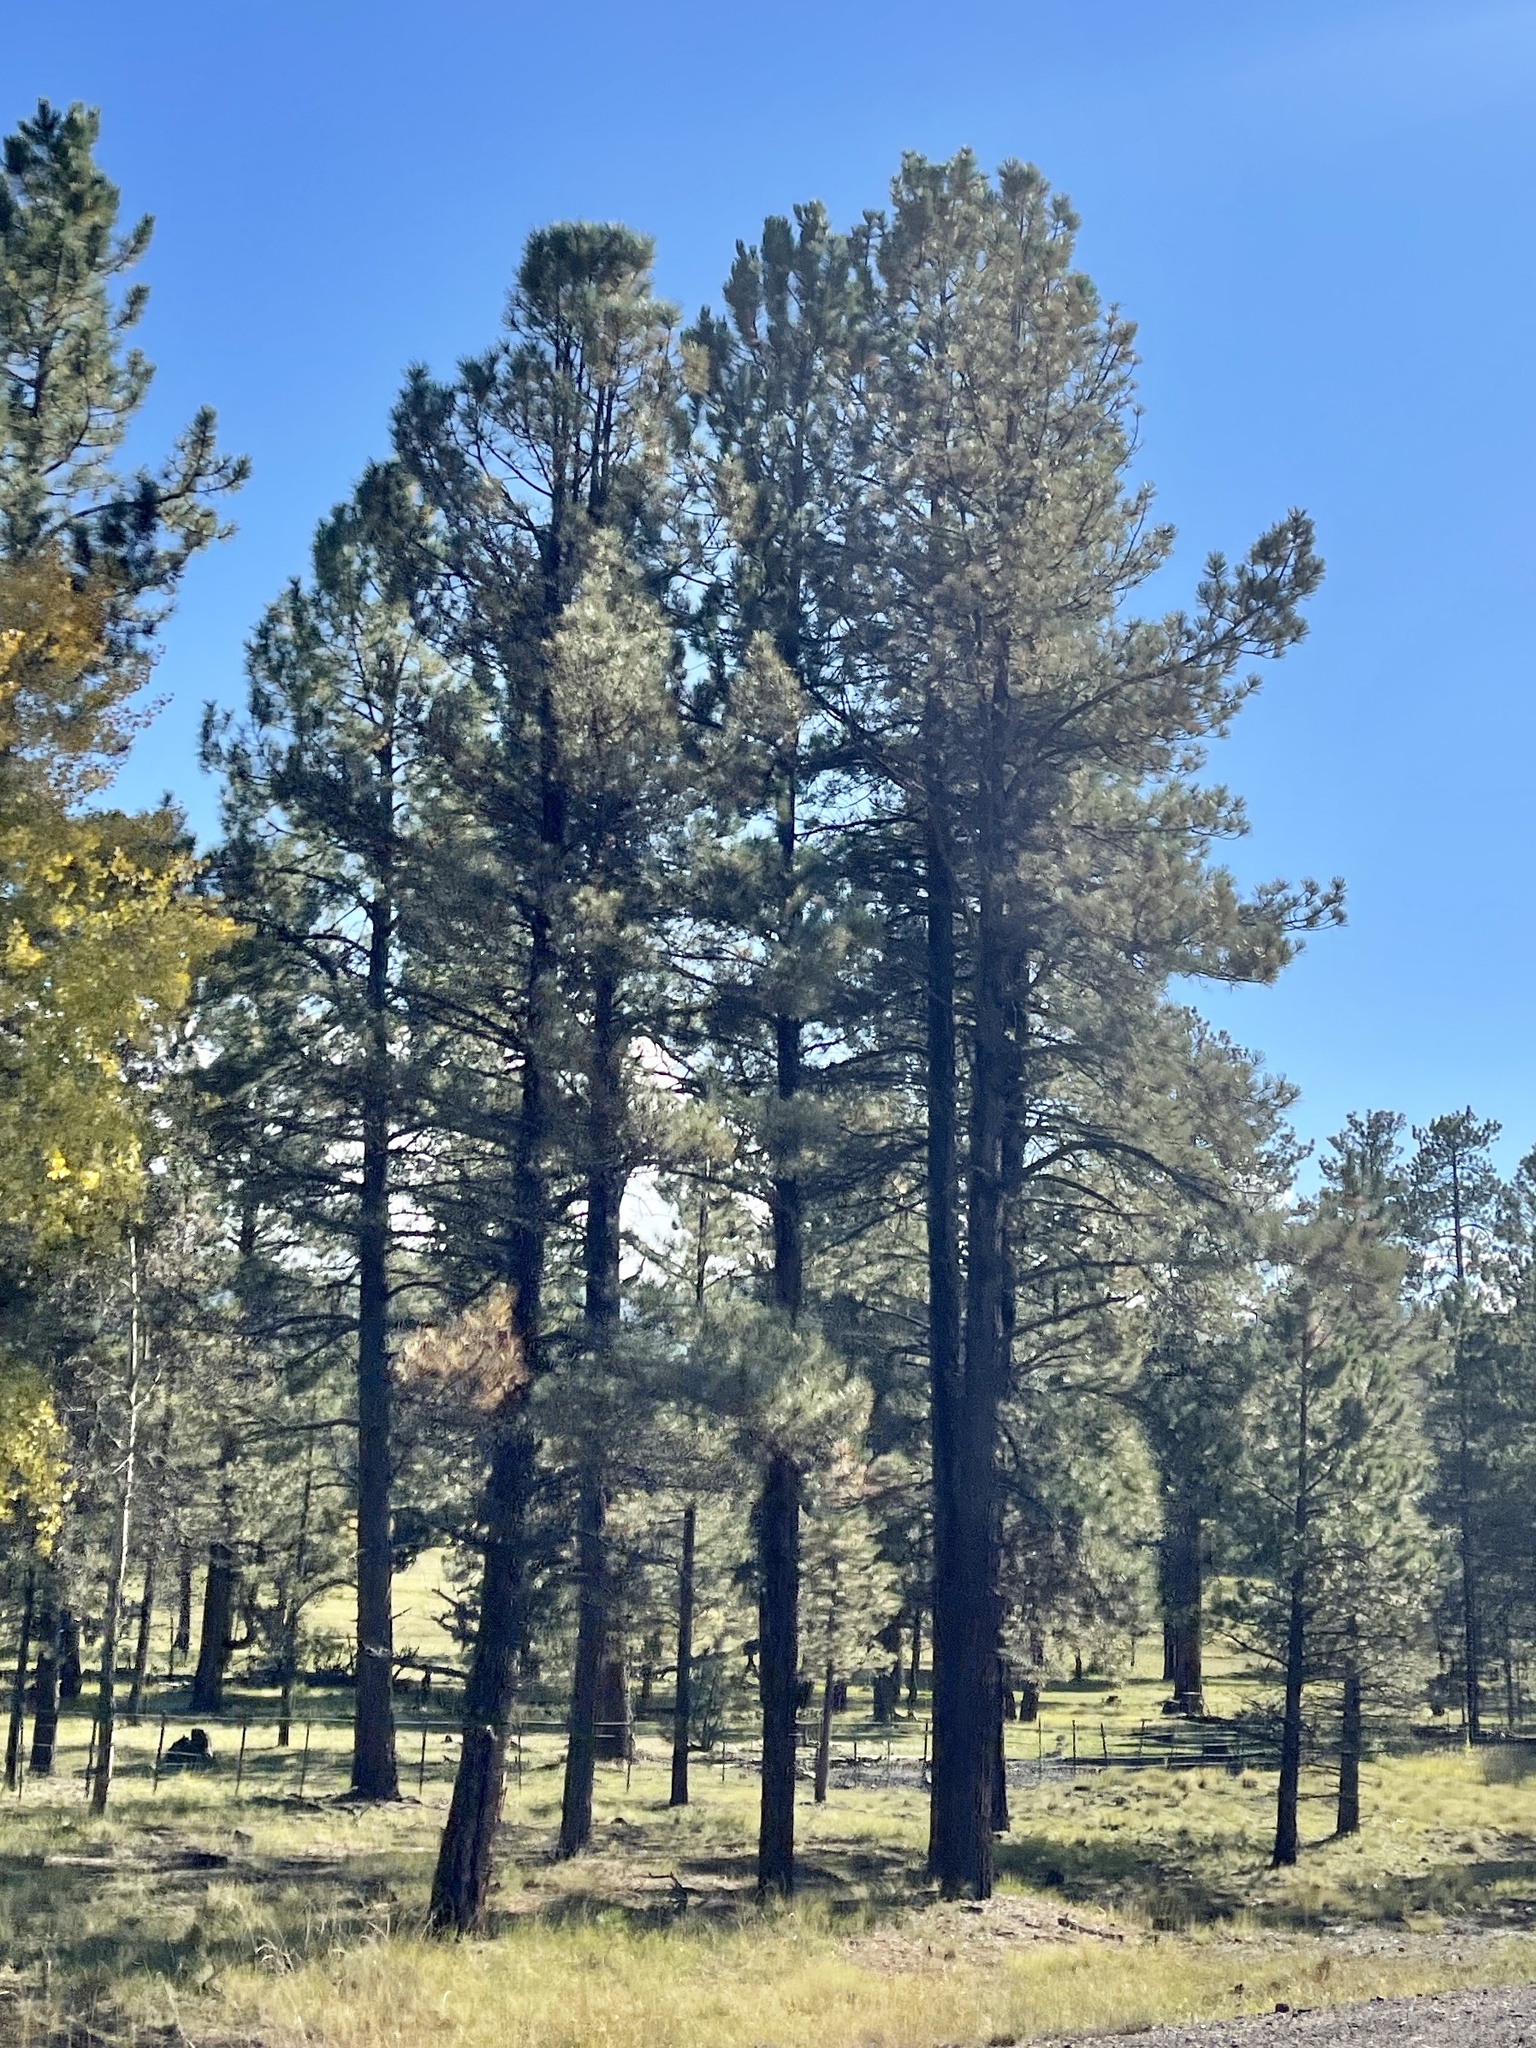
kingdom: Plantae
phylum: Tracheophyta
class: Pinopsida
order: Pinales
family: Pinaceae
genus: Pinus
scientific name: Pinus ponderosa
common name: Western yellow-pine
